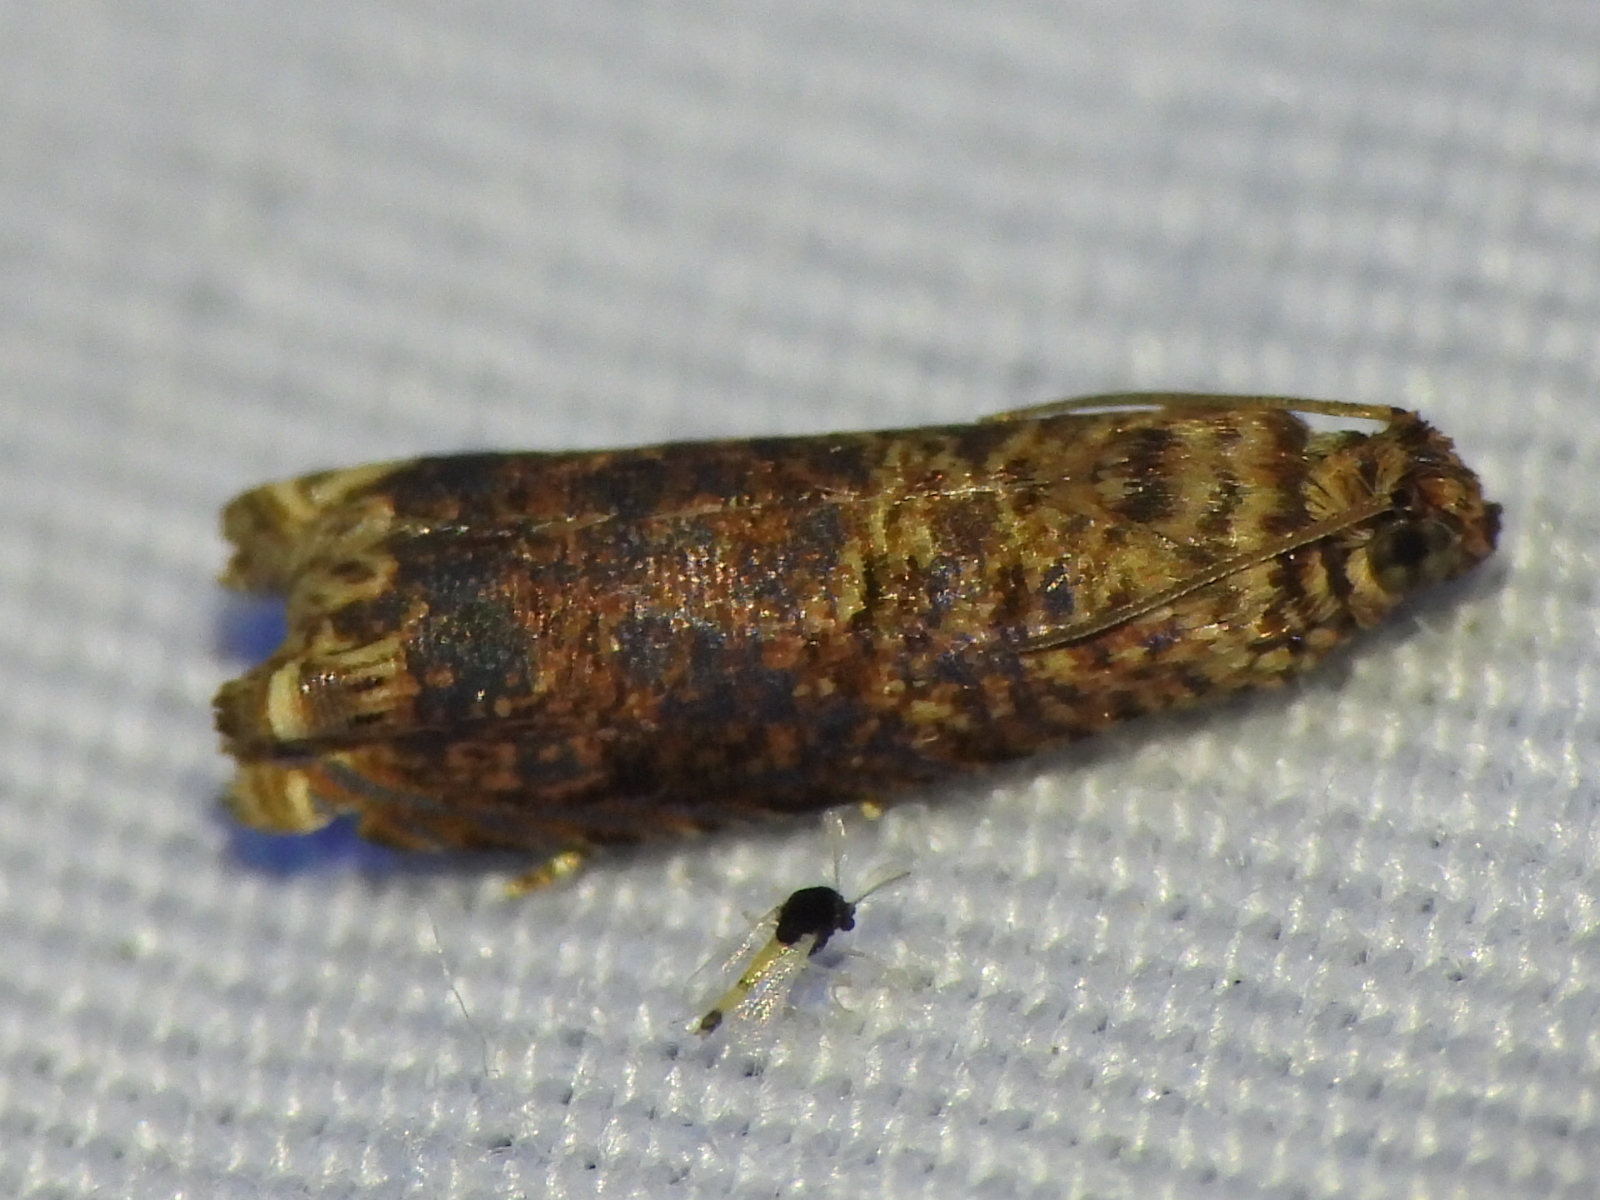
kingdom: Animalia
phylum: Arthropoda
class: Insecta
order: Lepidoptera
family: Tortricidae
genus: Episimus
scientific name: Episimus argutana
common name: Sumac leaftier moth
